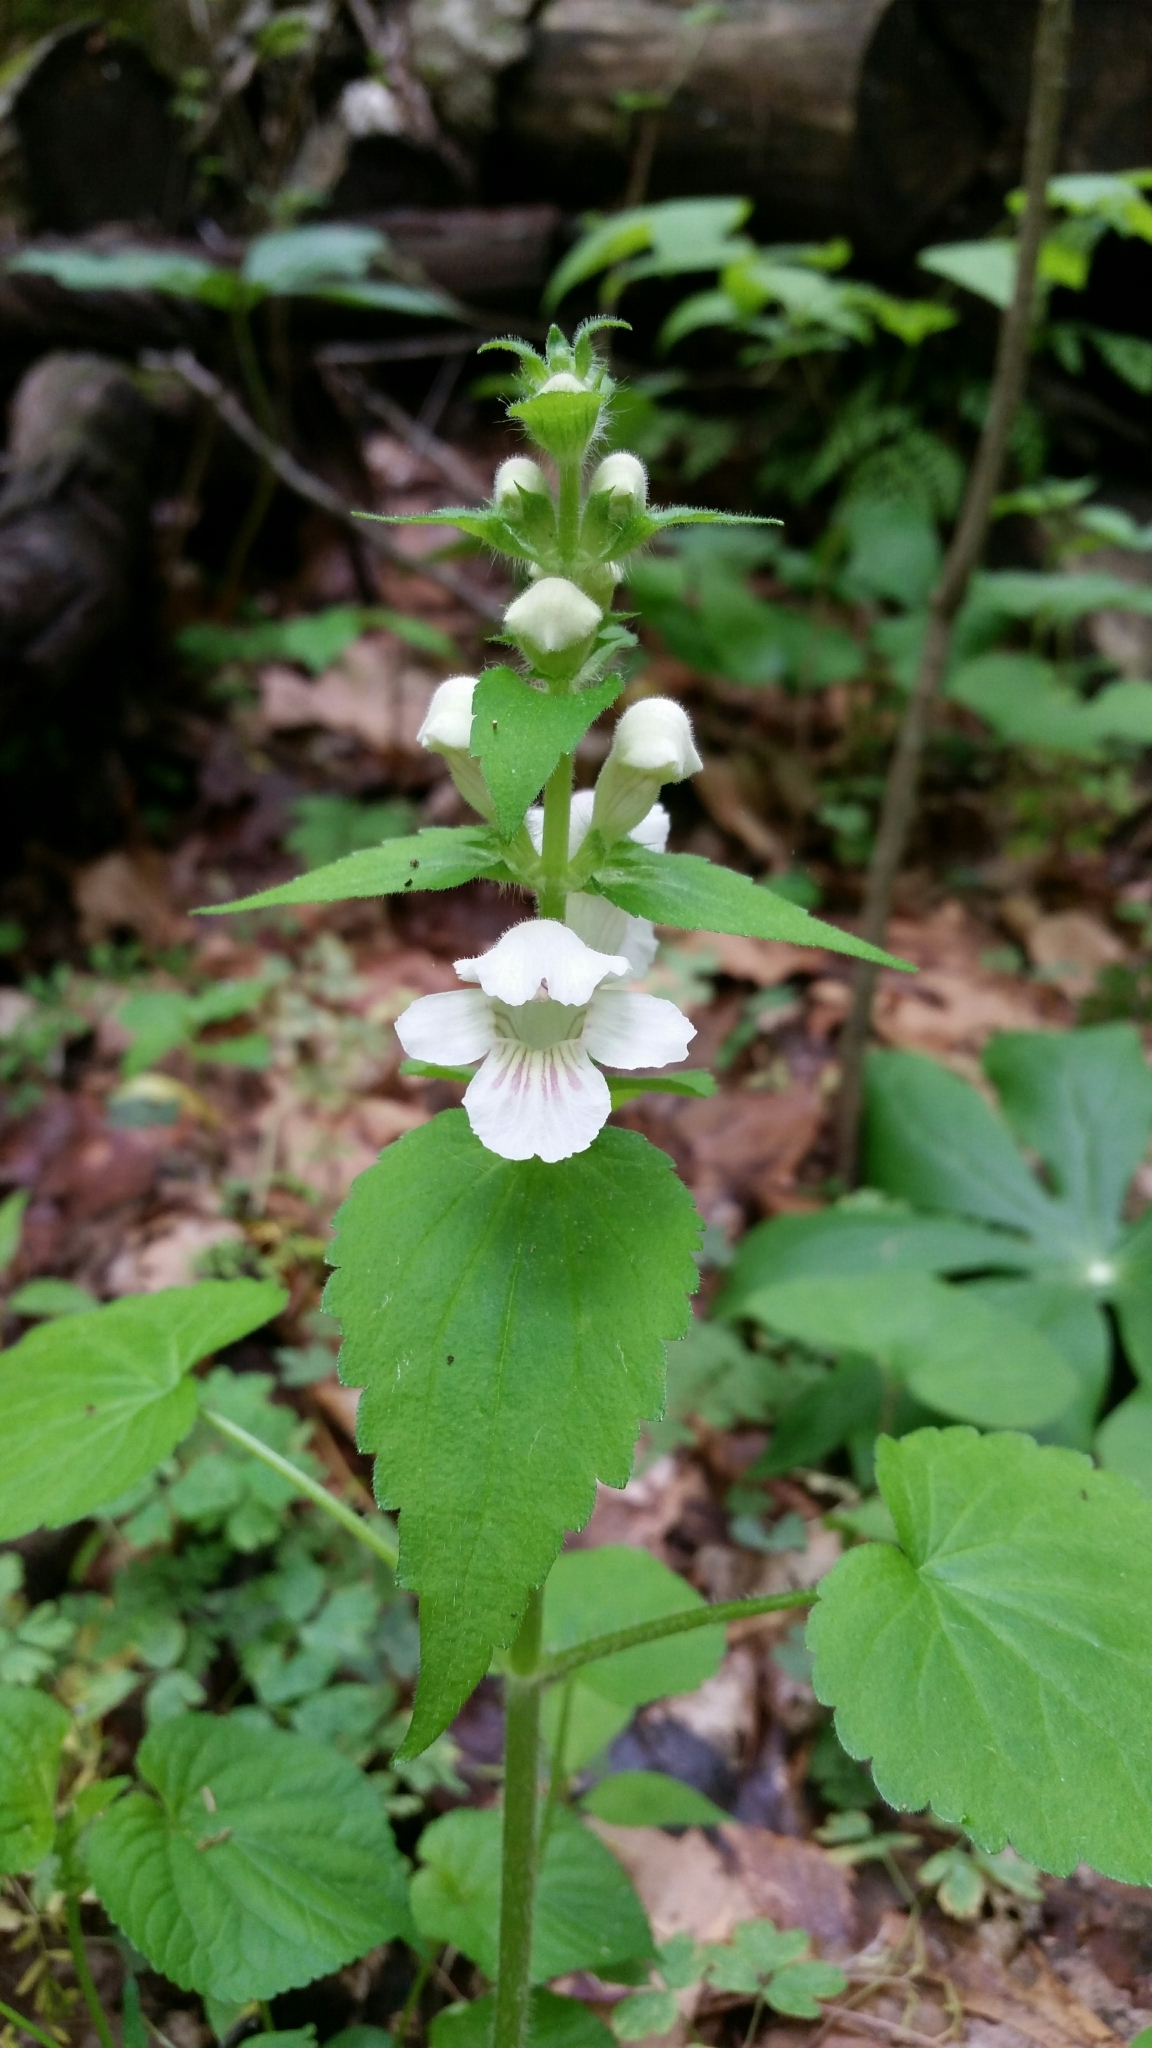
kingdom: Plantae
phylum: Tracheophyta
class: Magnoliopsida
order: Lamiales
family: Lamiaceae
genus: Synandra
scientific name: Synandra hispidula
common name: Synandra
